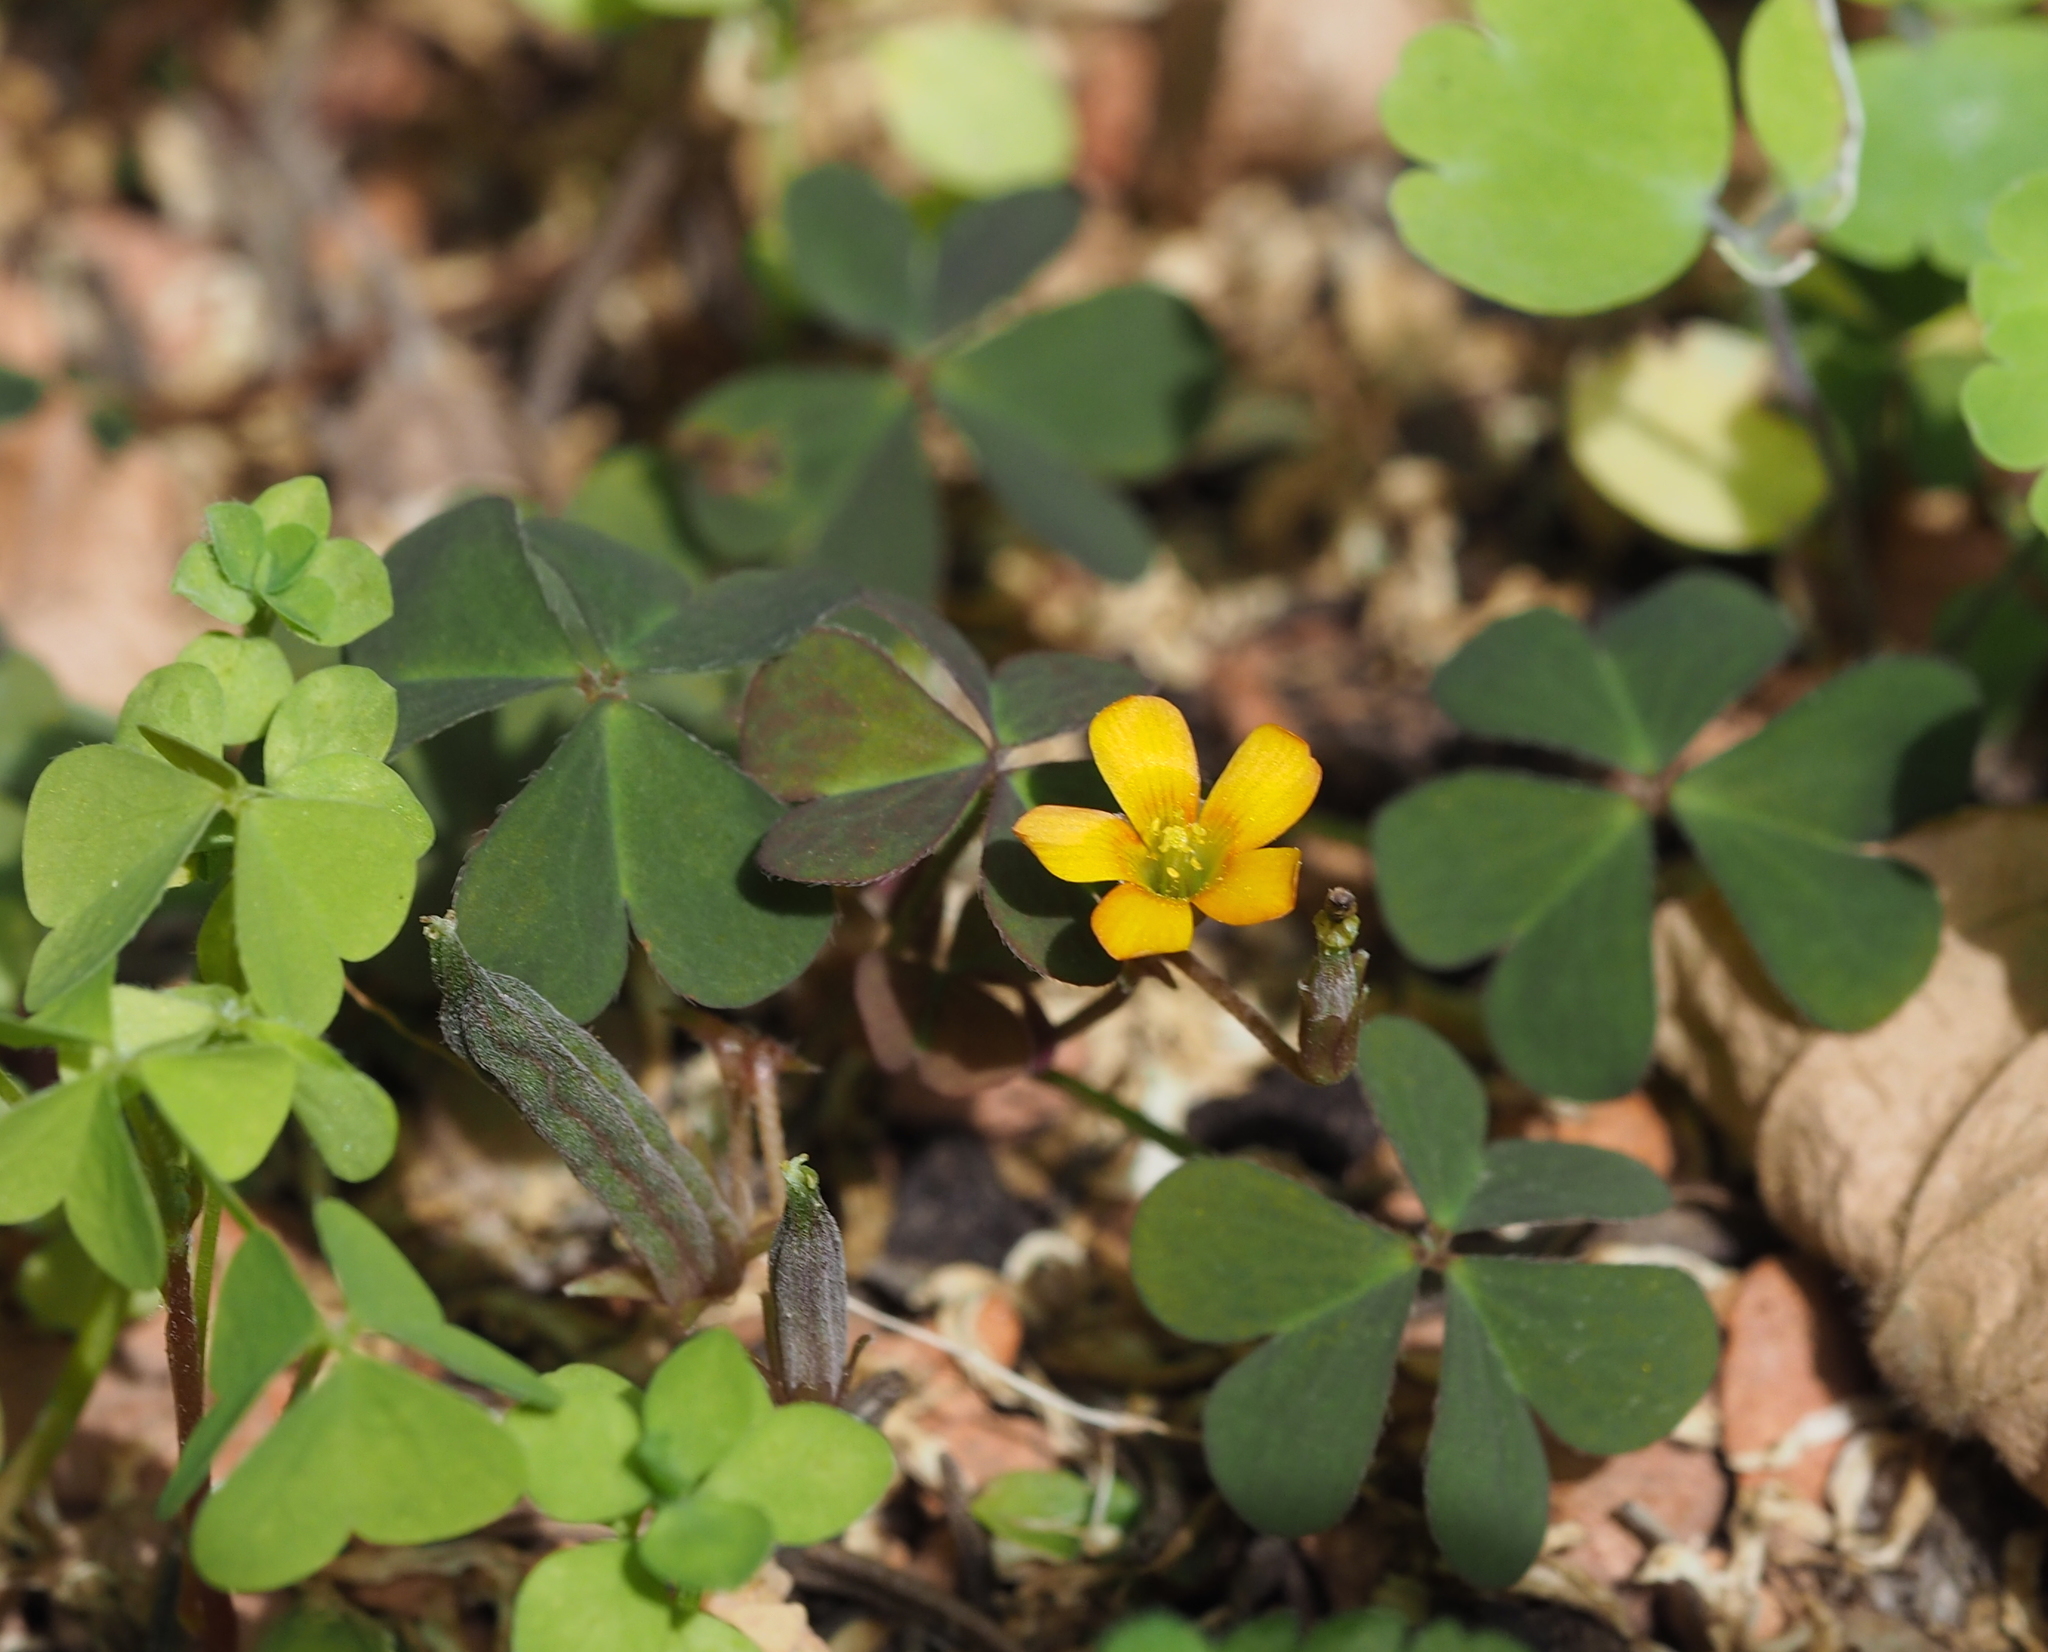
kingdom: Plantae
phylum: Tracheophyta
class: Magnoliopsida
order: Oxalidales
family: Oxalidaceae
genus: Oxalis
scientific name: Oxalis corniculata
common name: Procumbent yellow-sorrel
